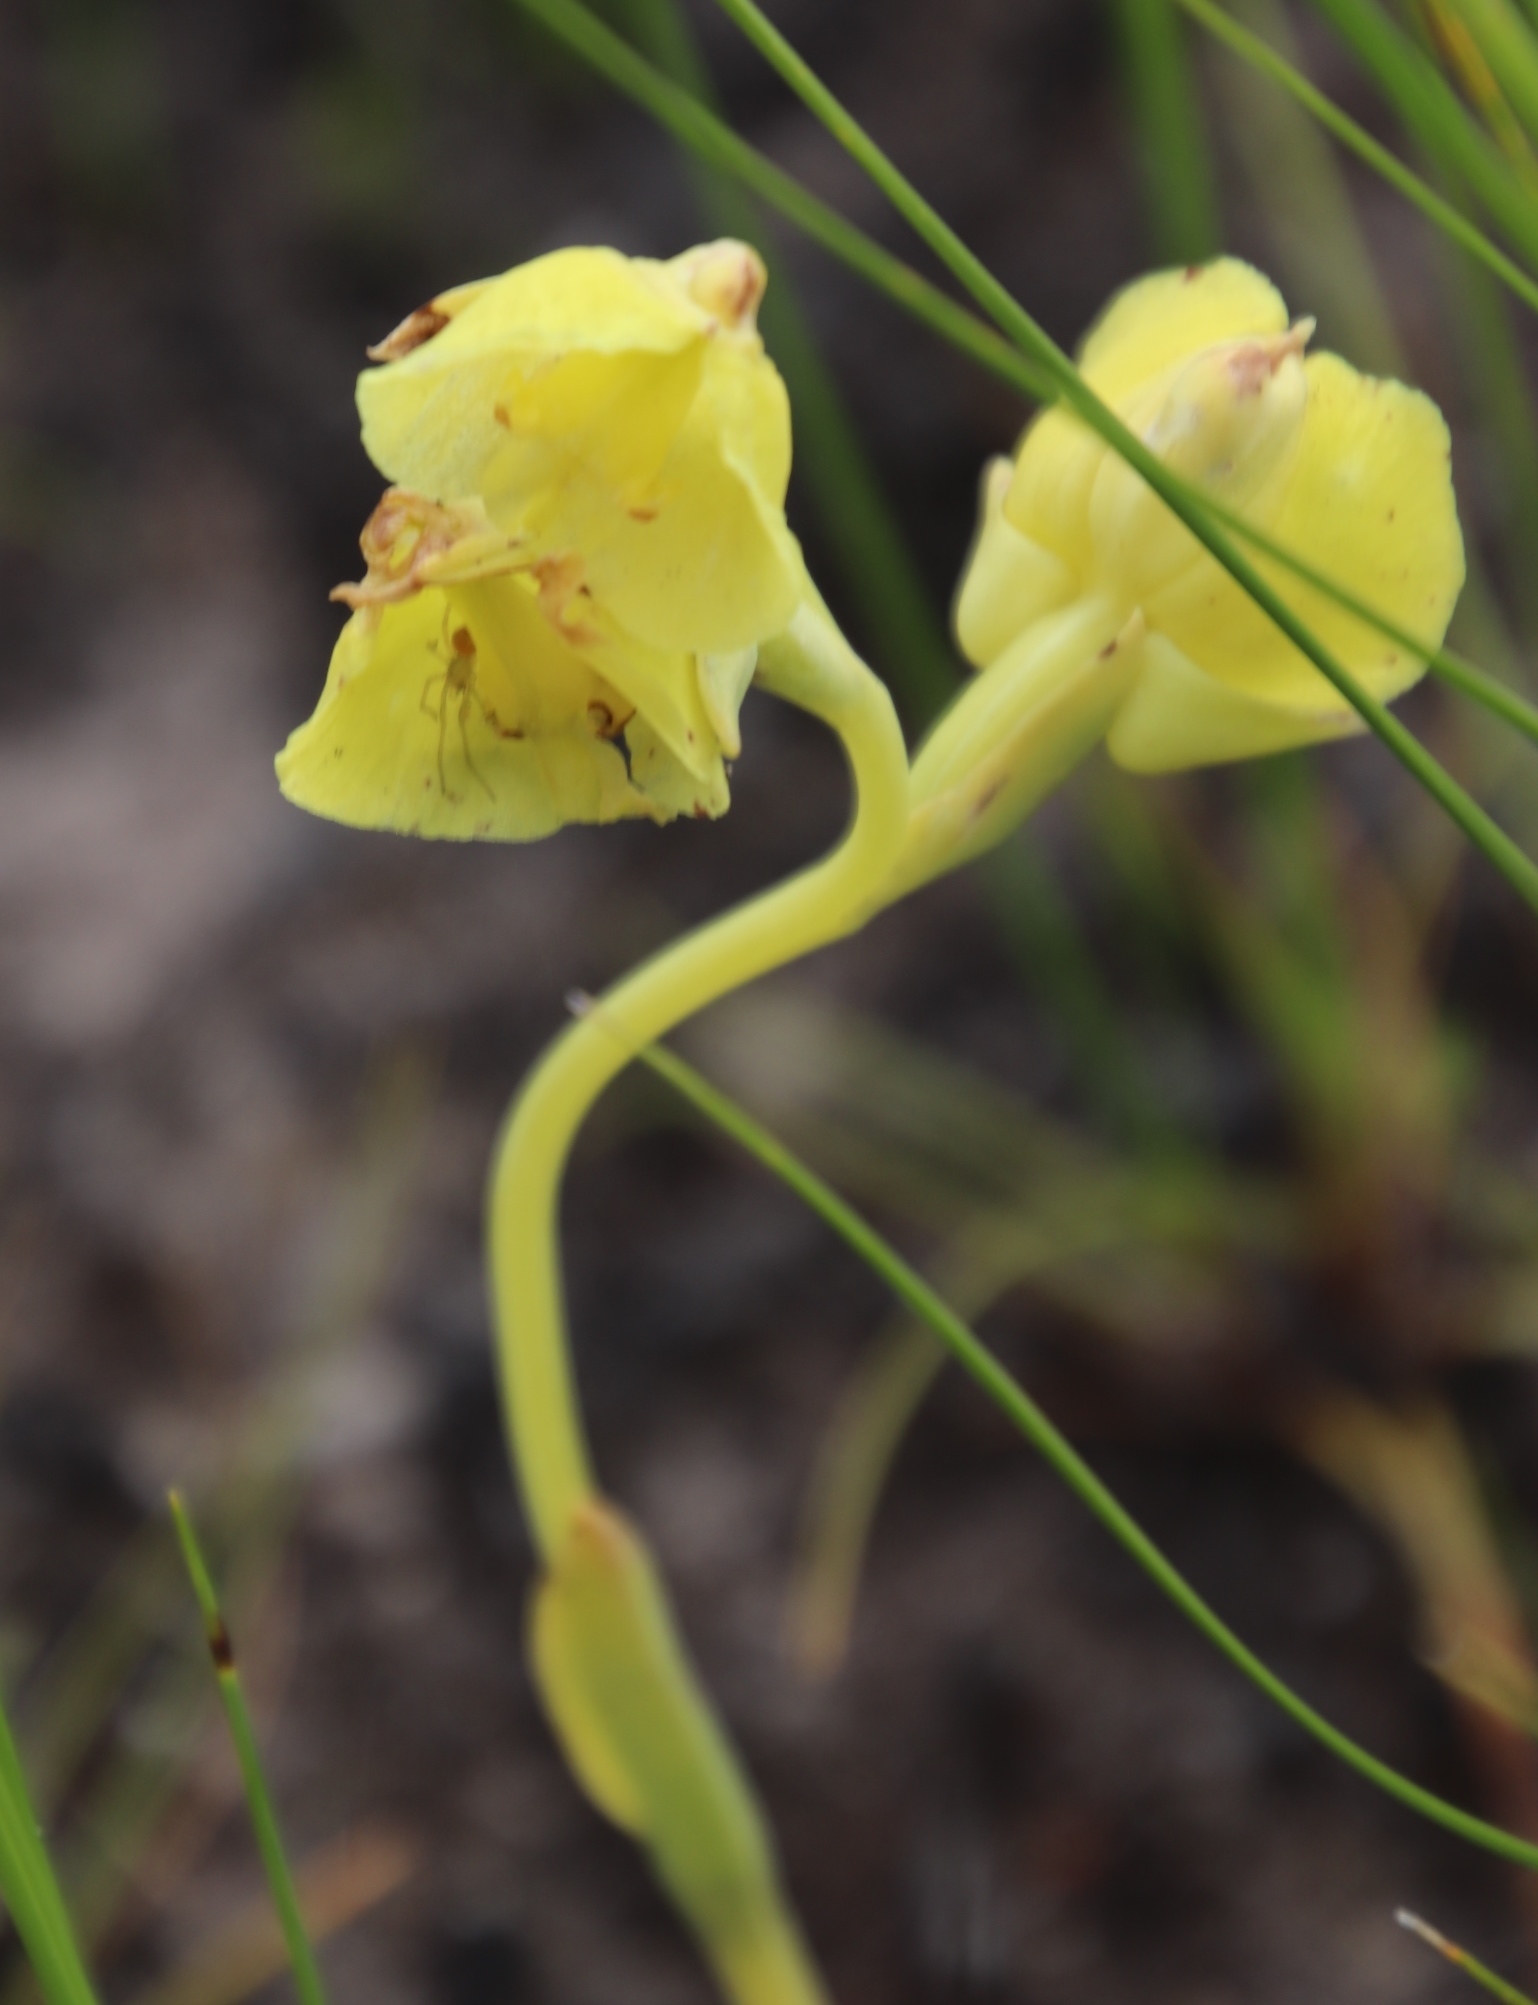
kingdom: Plantae
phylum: Tracheophyta
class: Liliopsida
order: Asparagales
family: Orchidaceae
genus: Pterygodium
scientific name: Pterygodium acutifolium
